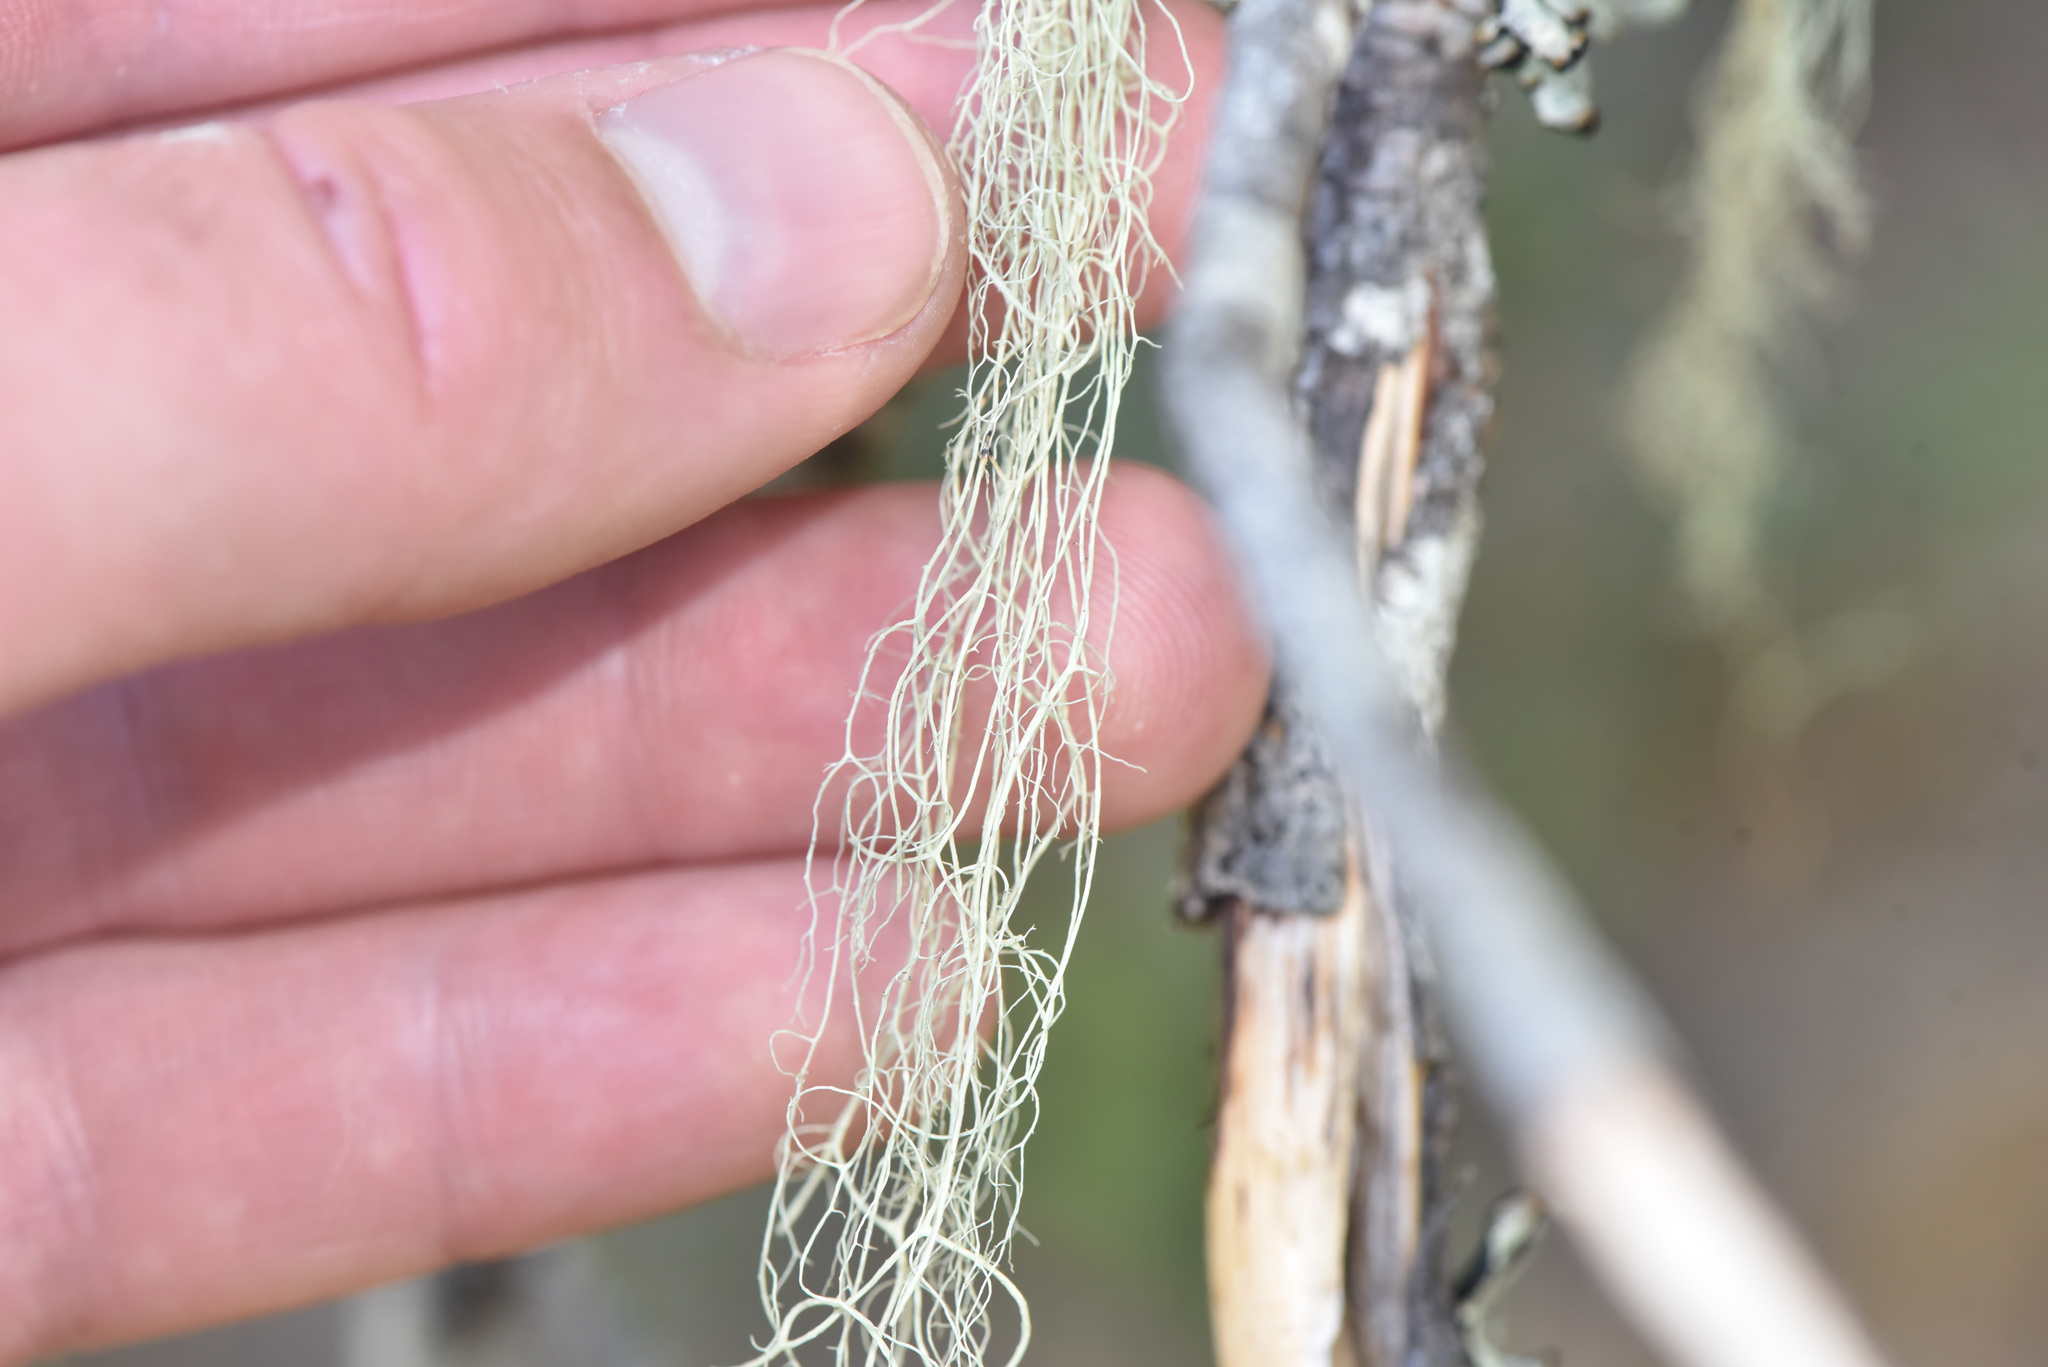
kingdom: Fungi
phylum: Ascomycota
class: Lecanoromycetes
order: Lecanorales
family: Parmeliaceae
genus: Alectoria
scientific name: Alectoria sarmentosa
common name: Witch's hair
